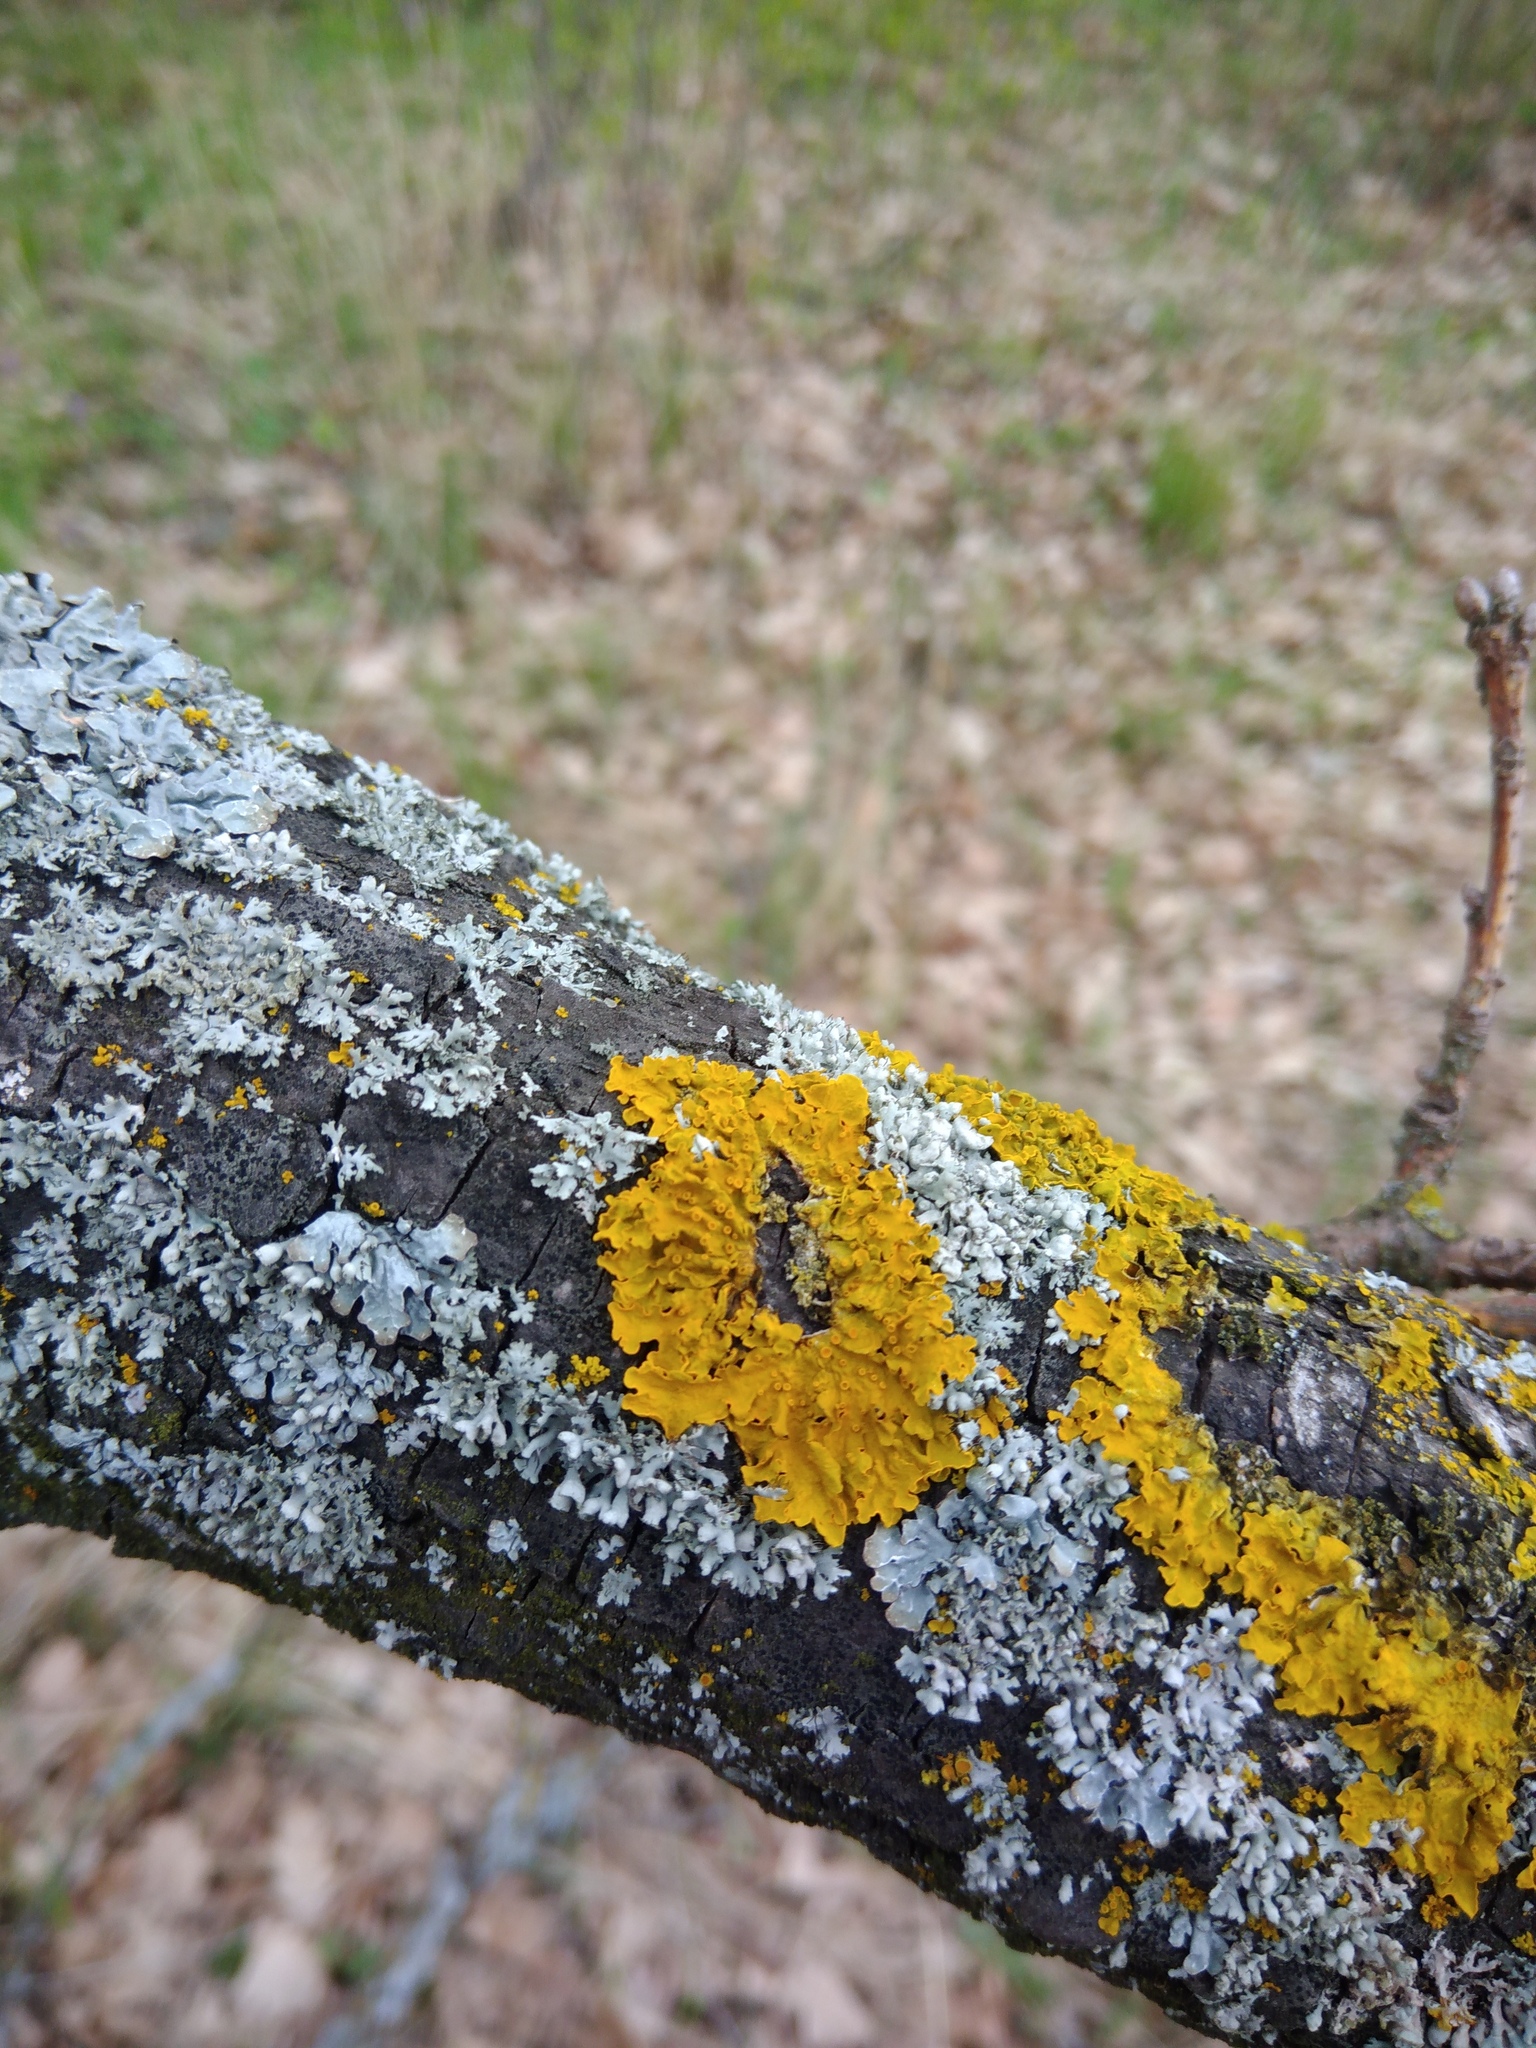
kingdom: Fungi
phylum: Ascomycota
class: Lecanoromycetes
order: Teloschistales
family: Teloschistaceae
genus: Xanthoria
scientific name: Xanthoria parietina
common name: Common orange lichen
